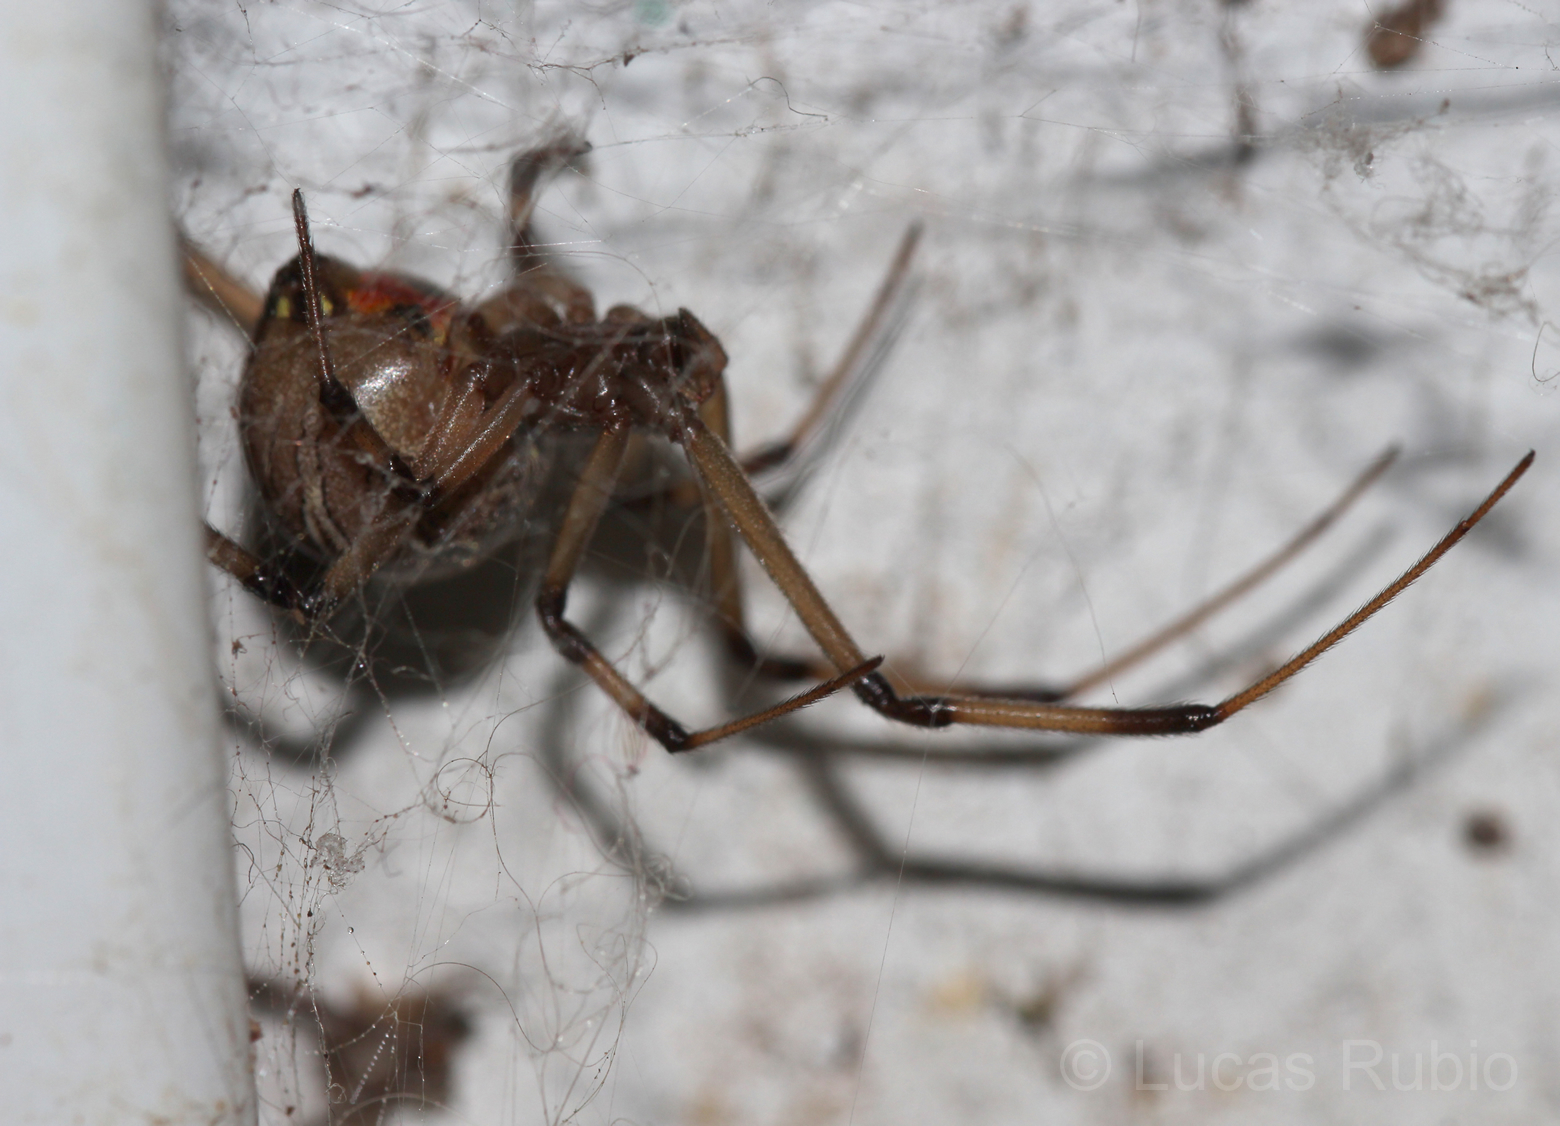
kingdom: Animalia
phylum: Arthropoda
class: Arachnida
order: Araneae
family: Theridiidae
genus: Latrodectus
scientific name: Latrodectus geometricus
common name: Brown widow spider
